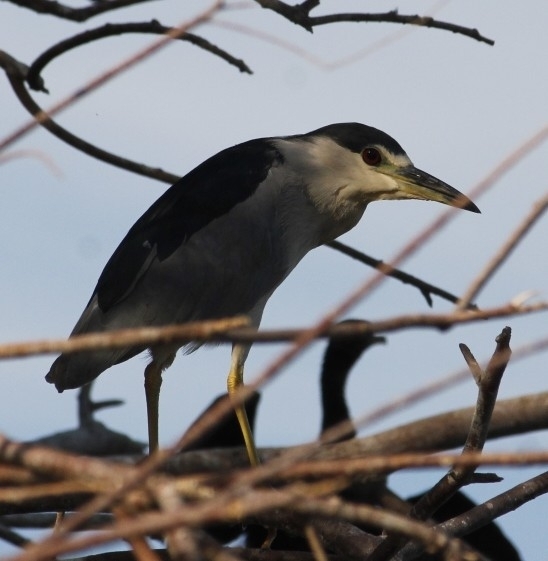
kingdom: Animalia
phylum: Chordata
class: Aves
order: Pelecaniformes
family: Ardeidae
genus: Nycticorax
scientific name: Nycticorax nycticorax
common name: Black-crowned night heron
